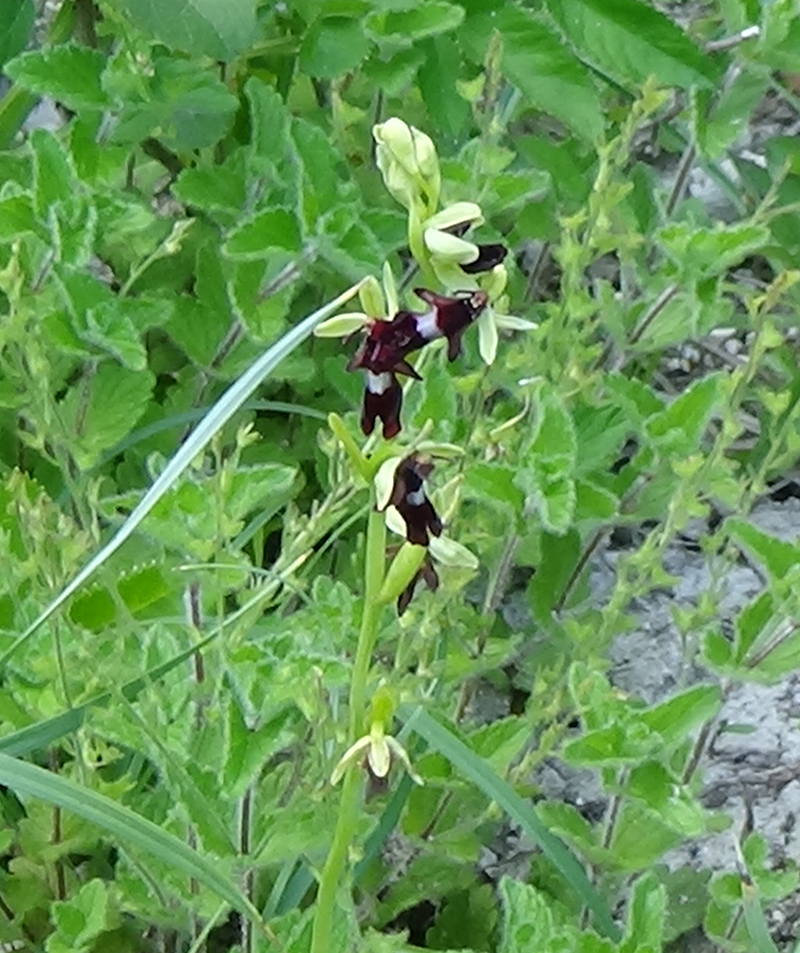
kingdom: Plantae
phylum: Tracheophyta
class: Liliopsida
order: Asparagales
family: Orchidaceae
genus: Ophrys
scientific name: Ophrys insectifera
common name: Fly orchid
